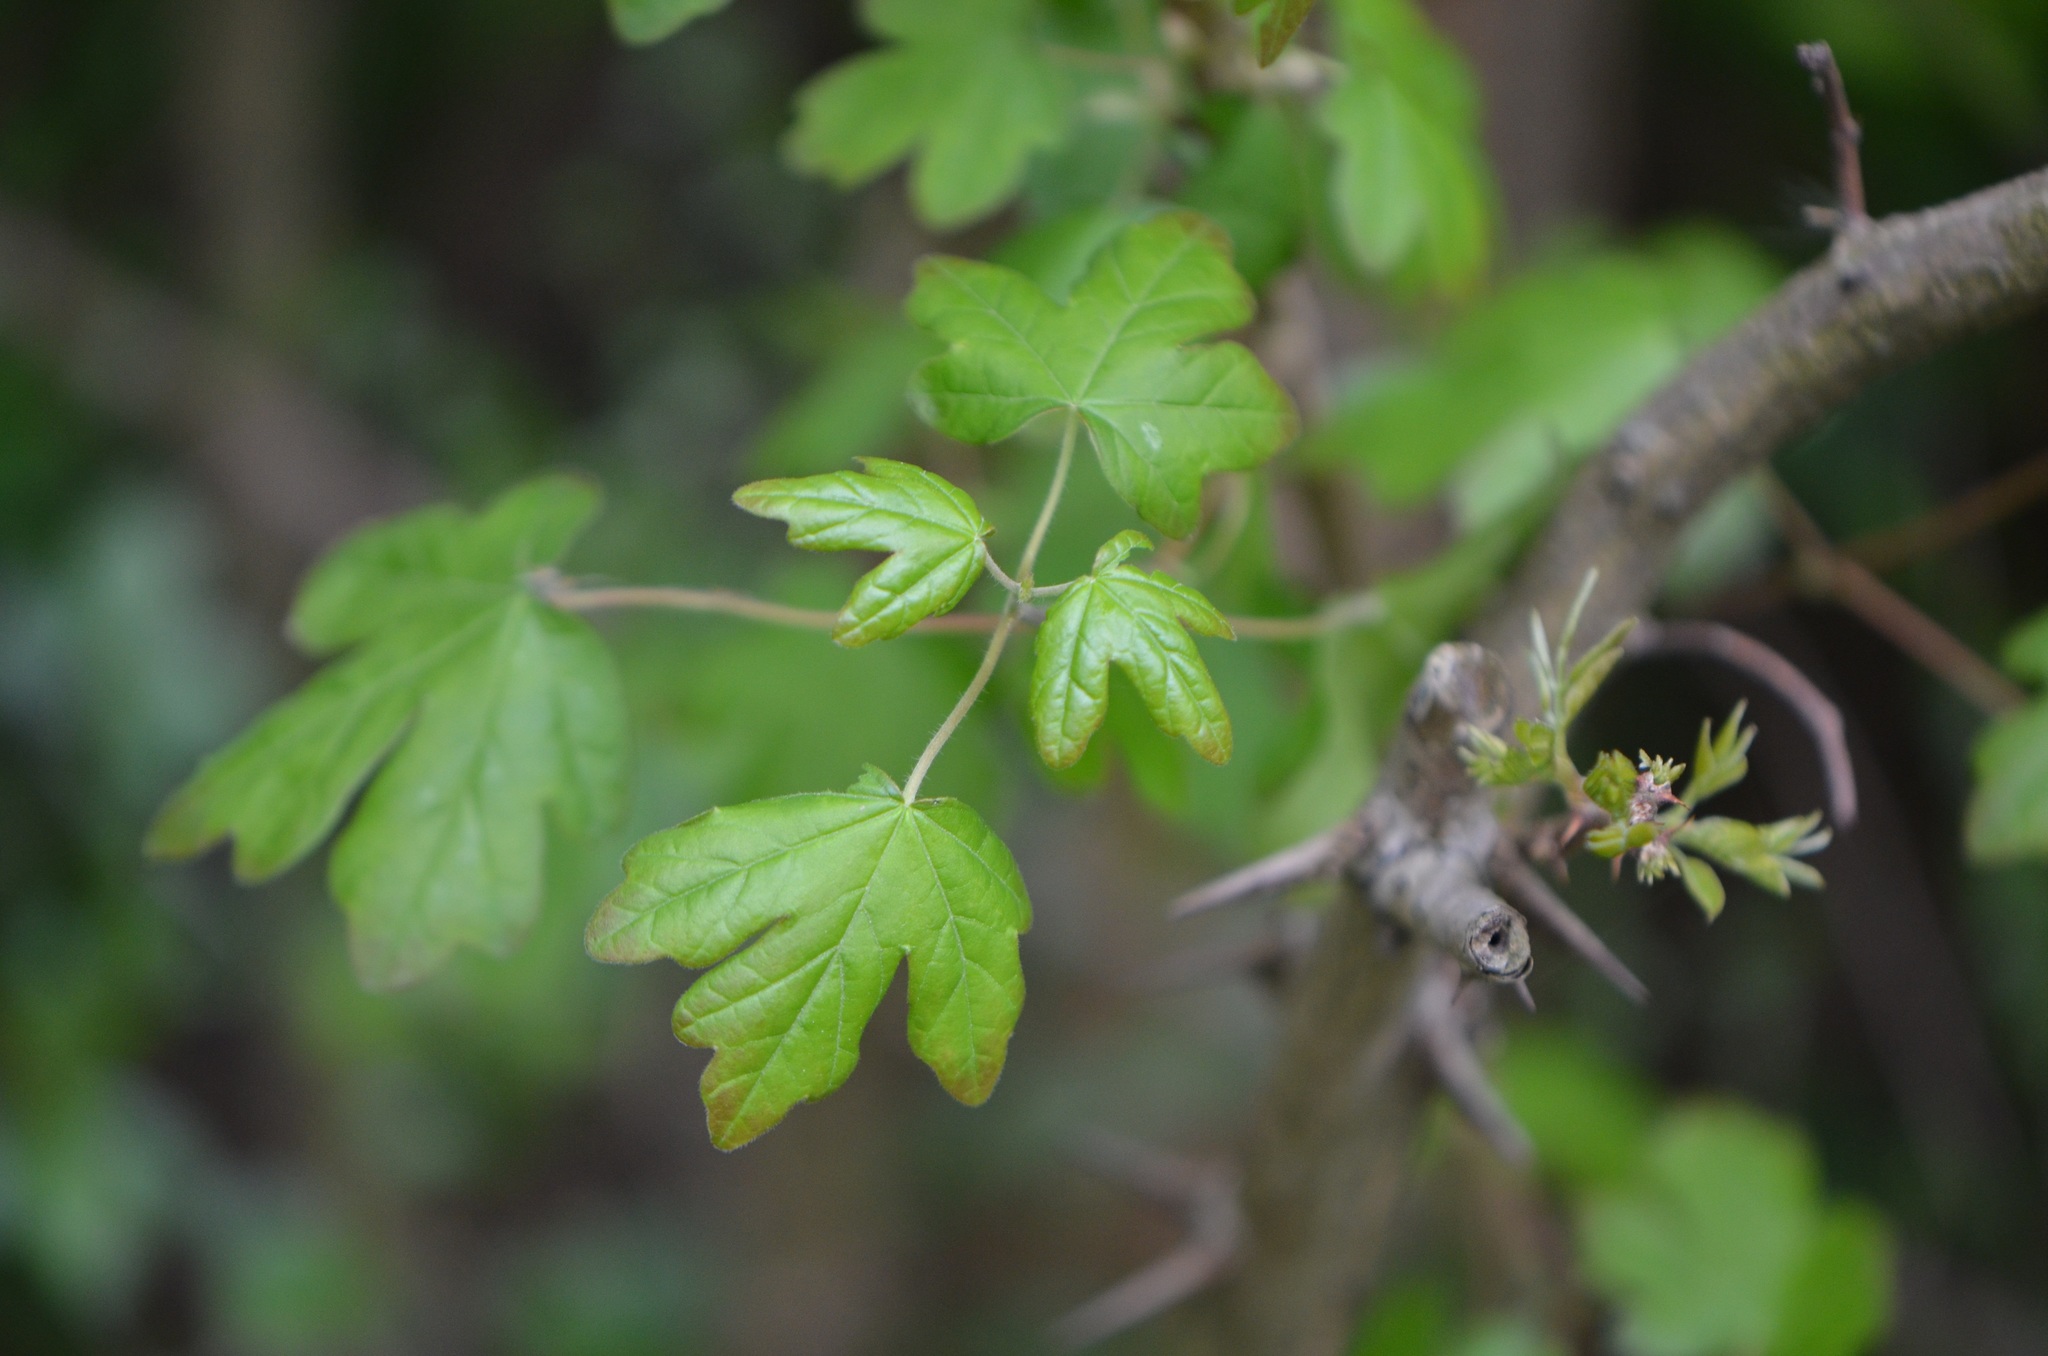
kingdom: Plantae
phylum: Tracheophyta
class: Magnoliopsida
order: Sapindales
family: Sapindaceae
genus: Acer
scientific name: Acer campestre
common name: Field maple
